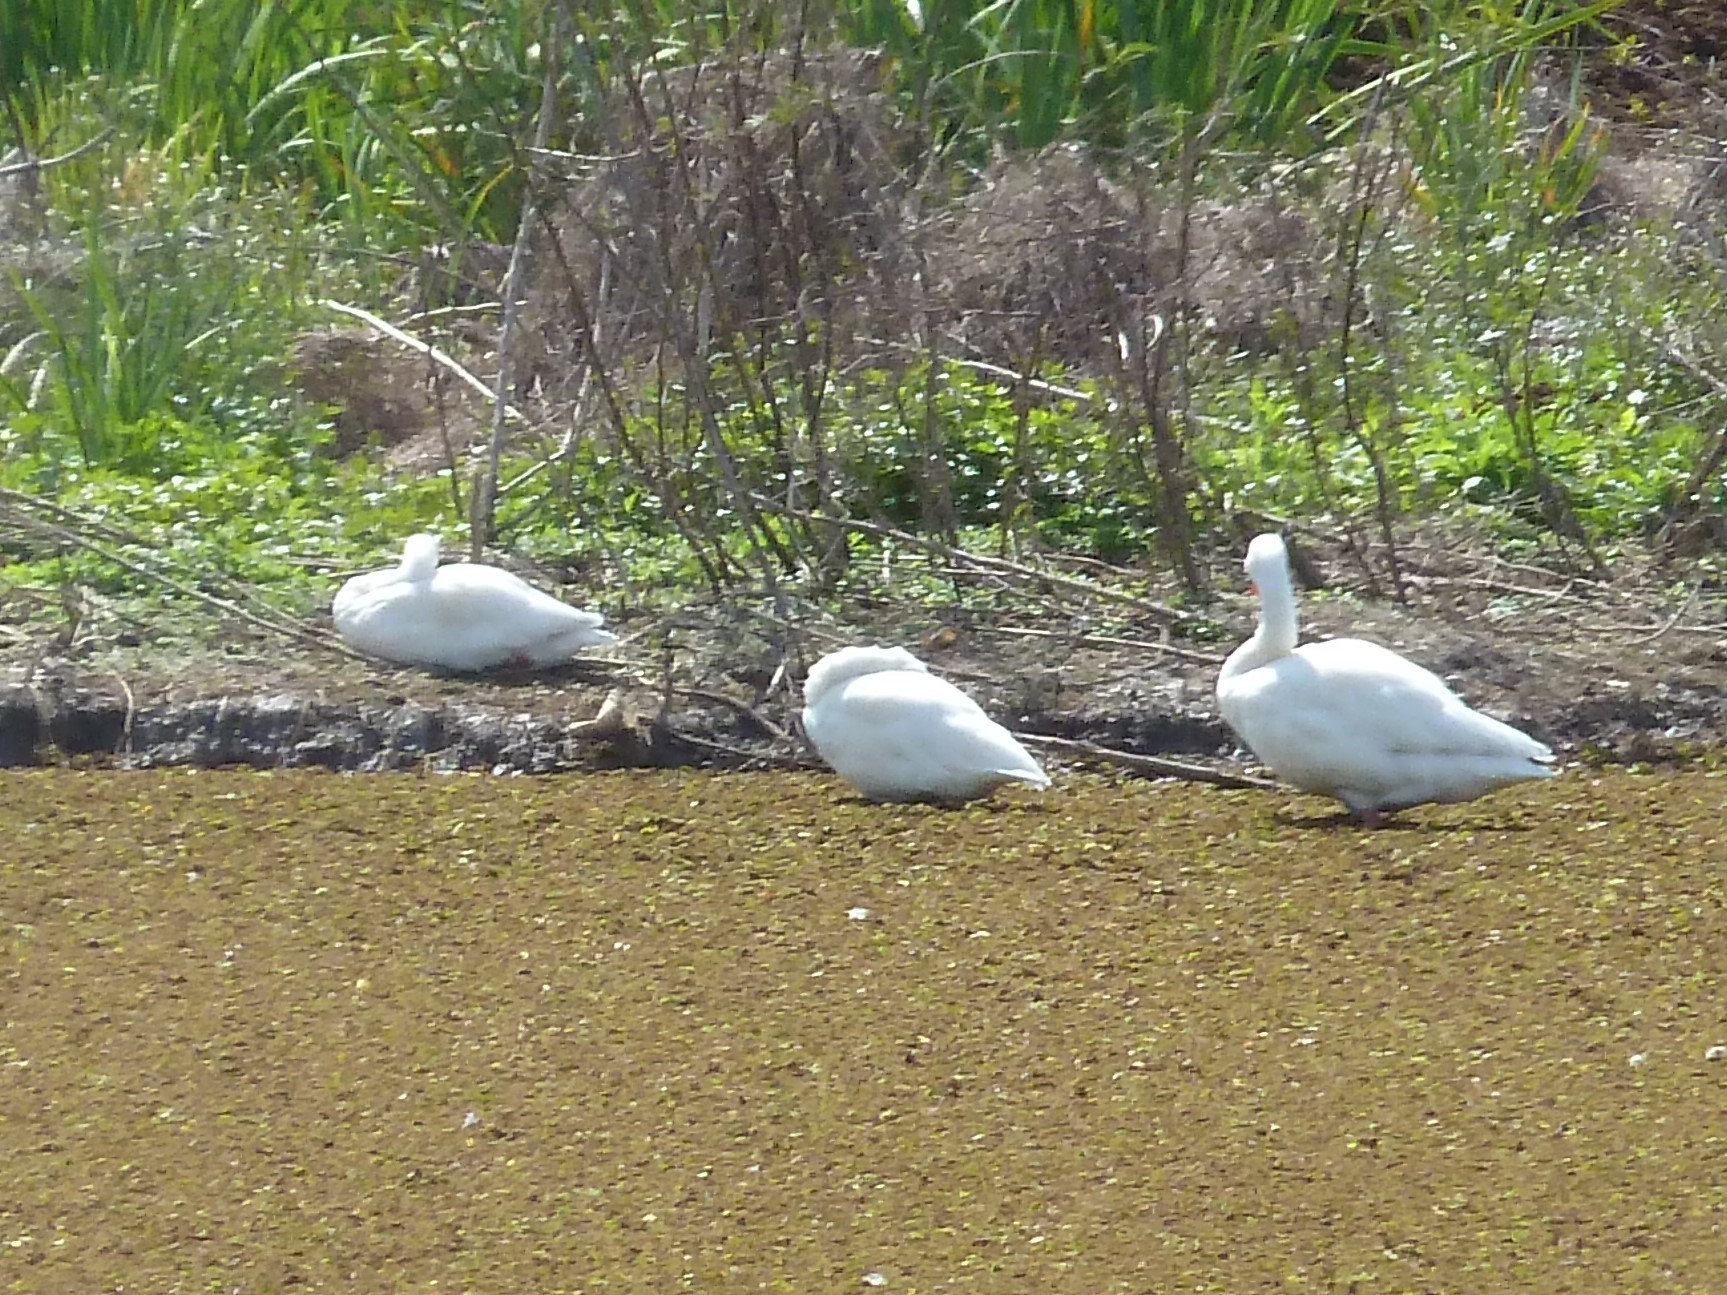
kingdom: Animalia
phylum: Chordata
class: Aves
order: Anseriformes
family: Anatidae
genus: Coscoroba
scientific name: Coscoroba coscoroba
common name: Coscoroba swan
